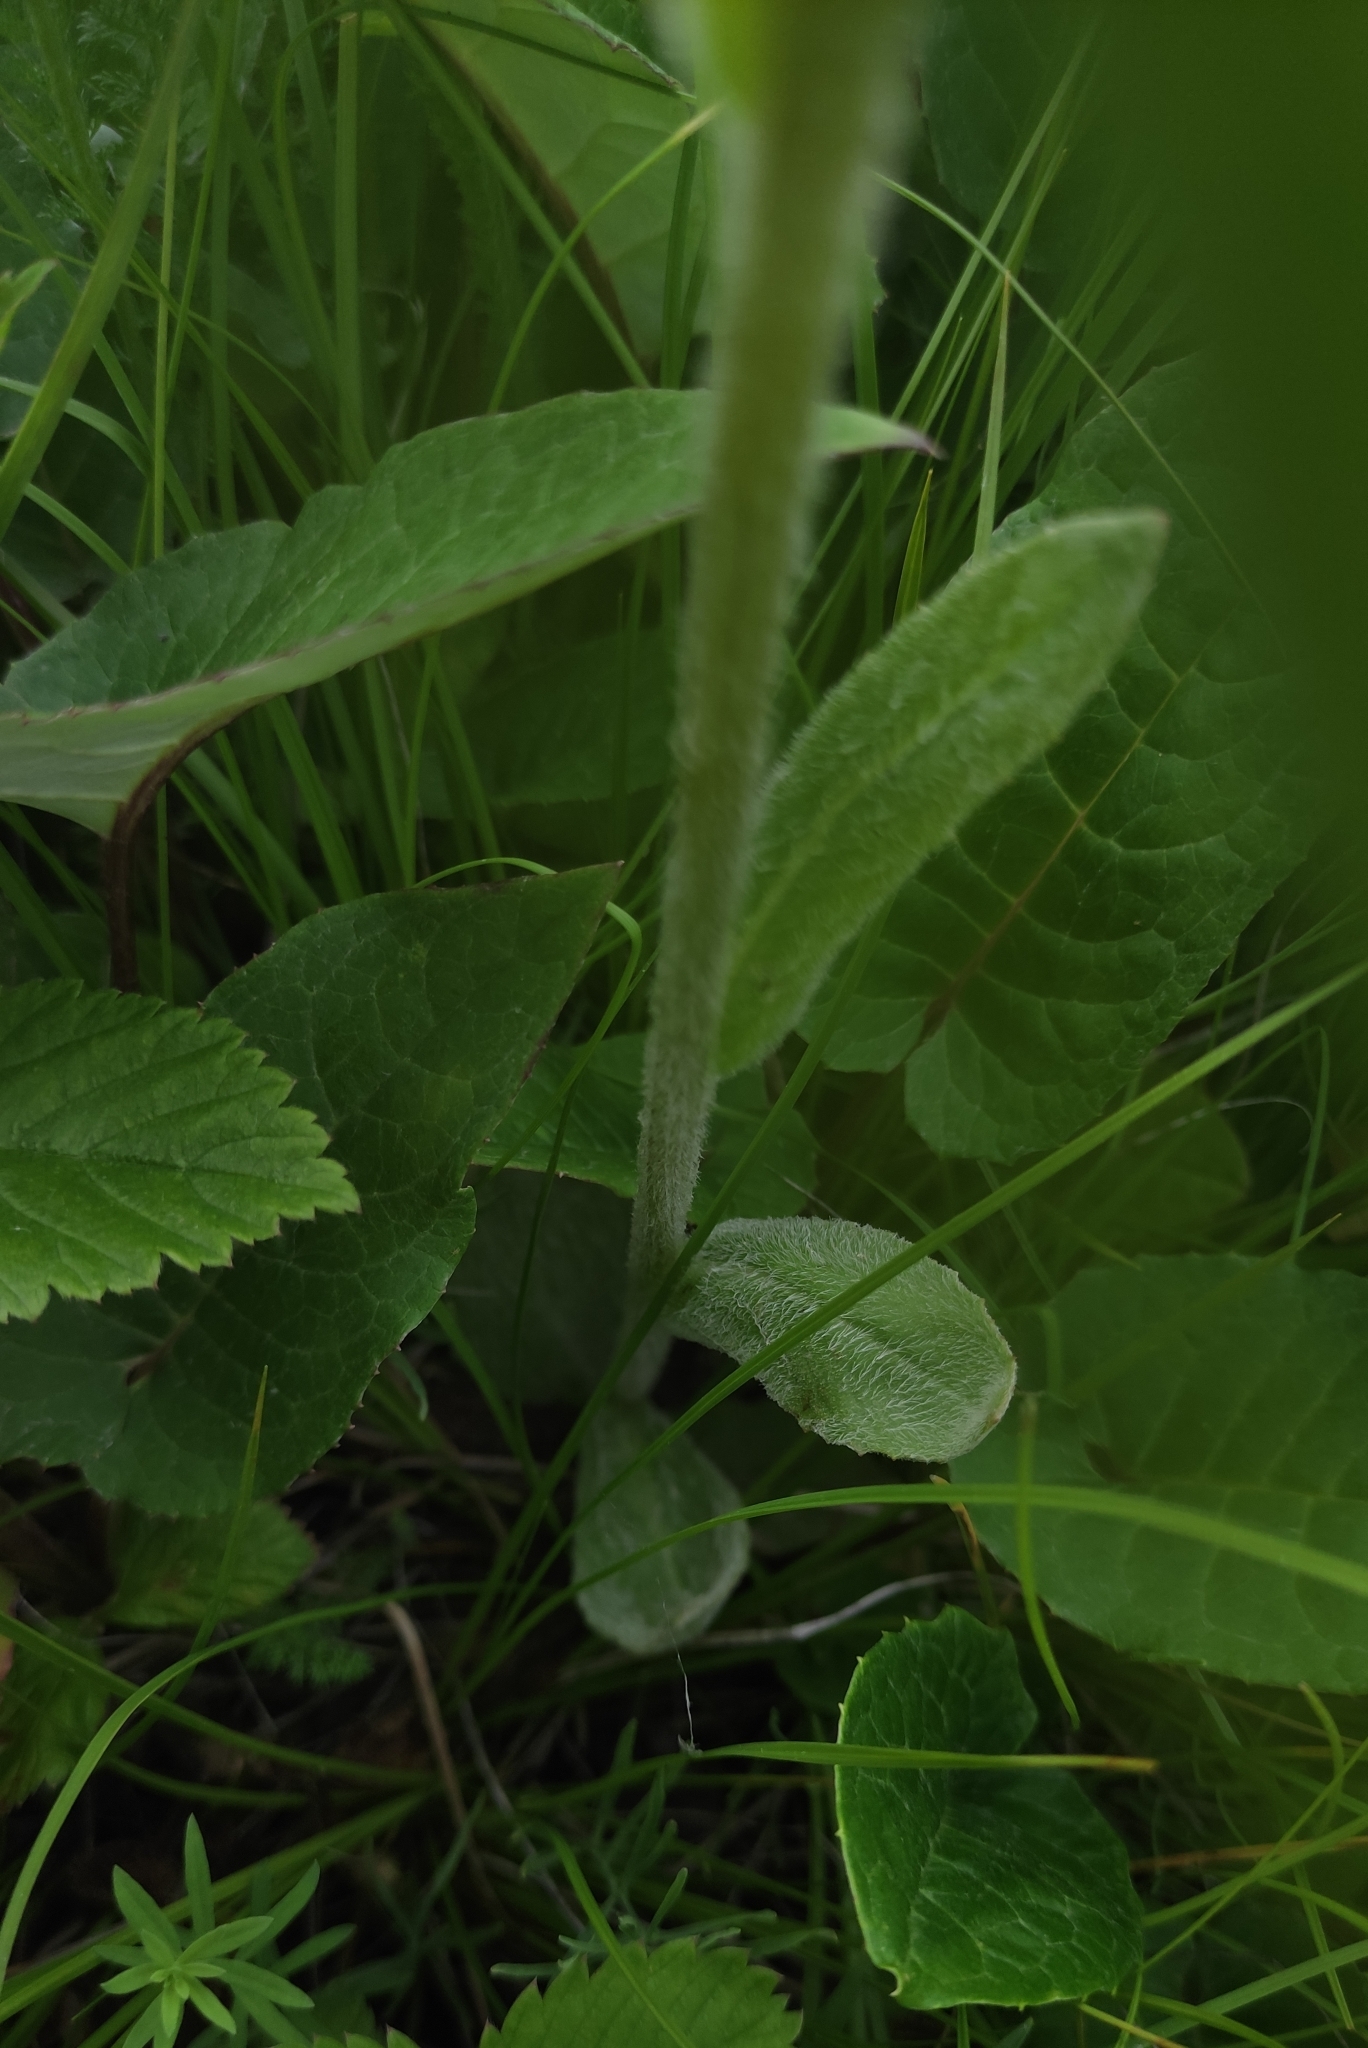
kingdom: Plantae
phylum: Tracheophyta
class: Magnoliopsida
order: Asterales
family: Asteraceae
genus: Tephroseris
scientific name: Tephroseris porphyrantha
